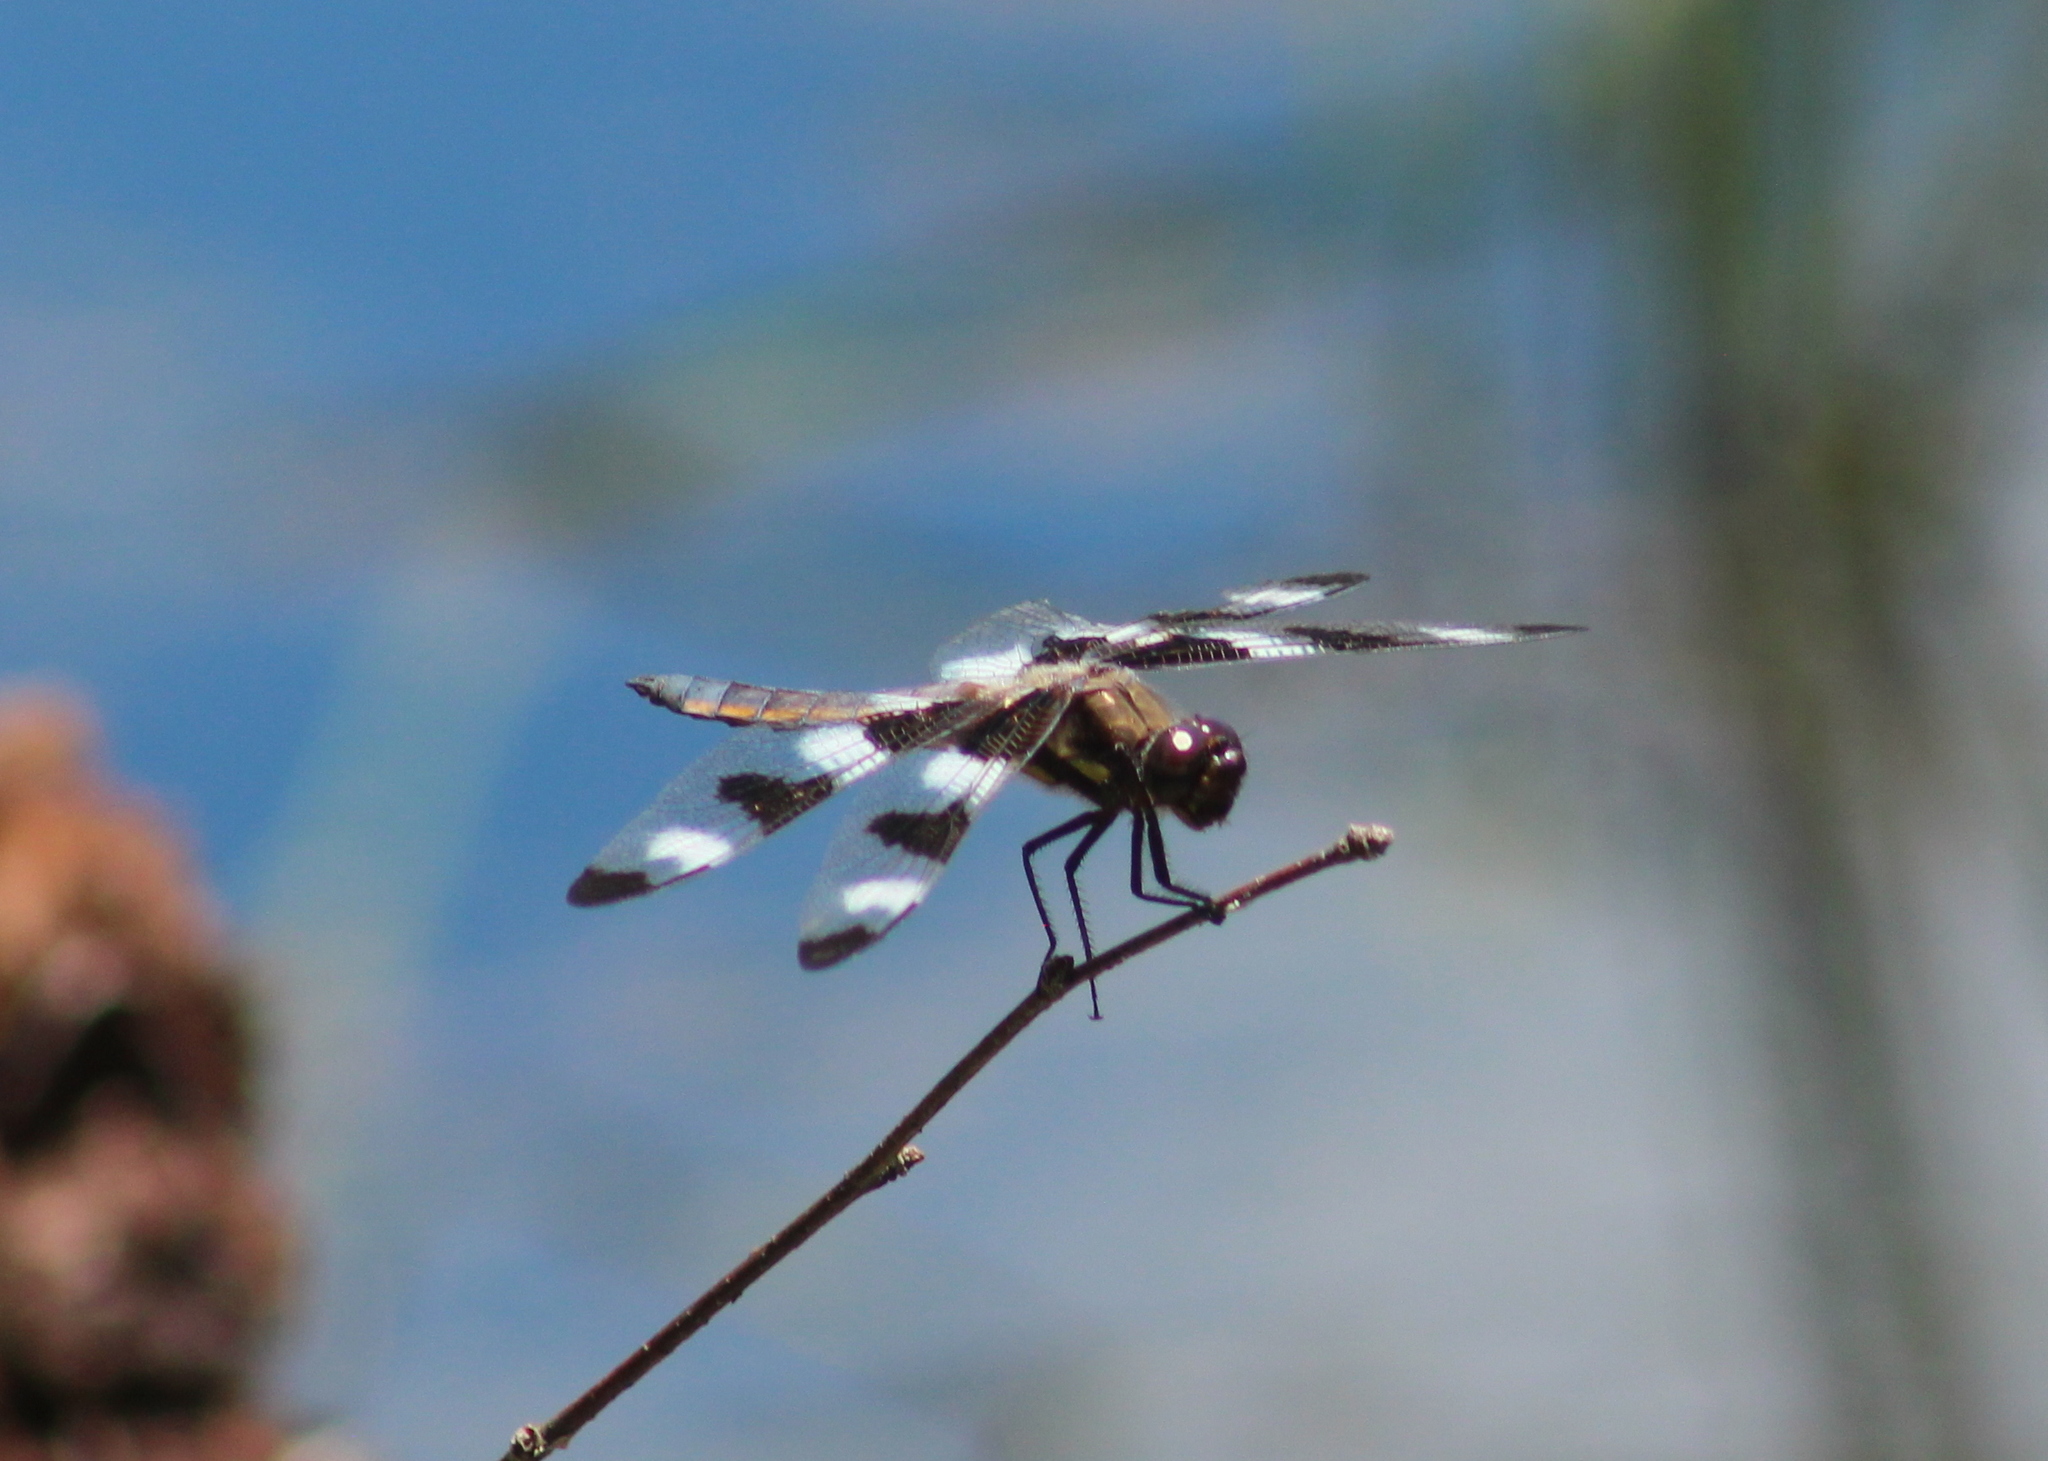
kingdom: Animalia
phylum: Arthropoda
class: Insecta
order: Odonata
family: Libellulidae
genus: Libellula
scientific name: Libellula pulchella
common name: Twelve-spotted skimmer
